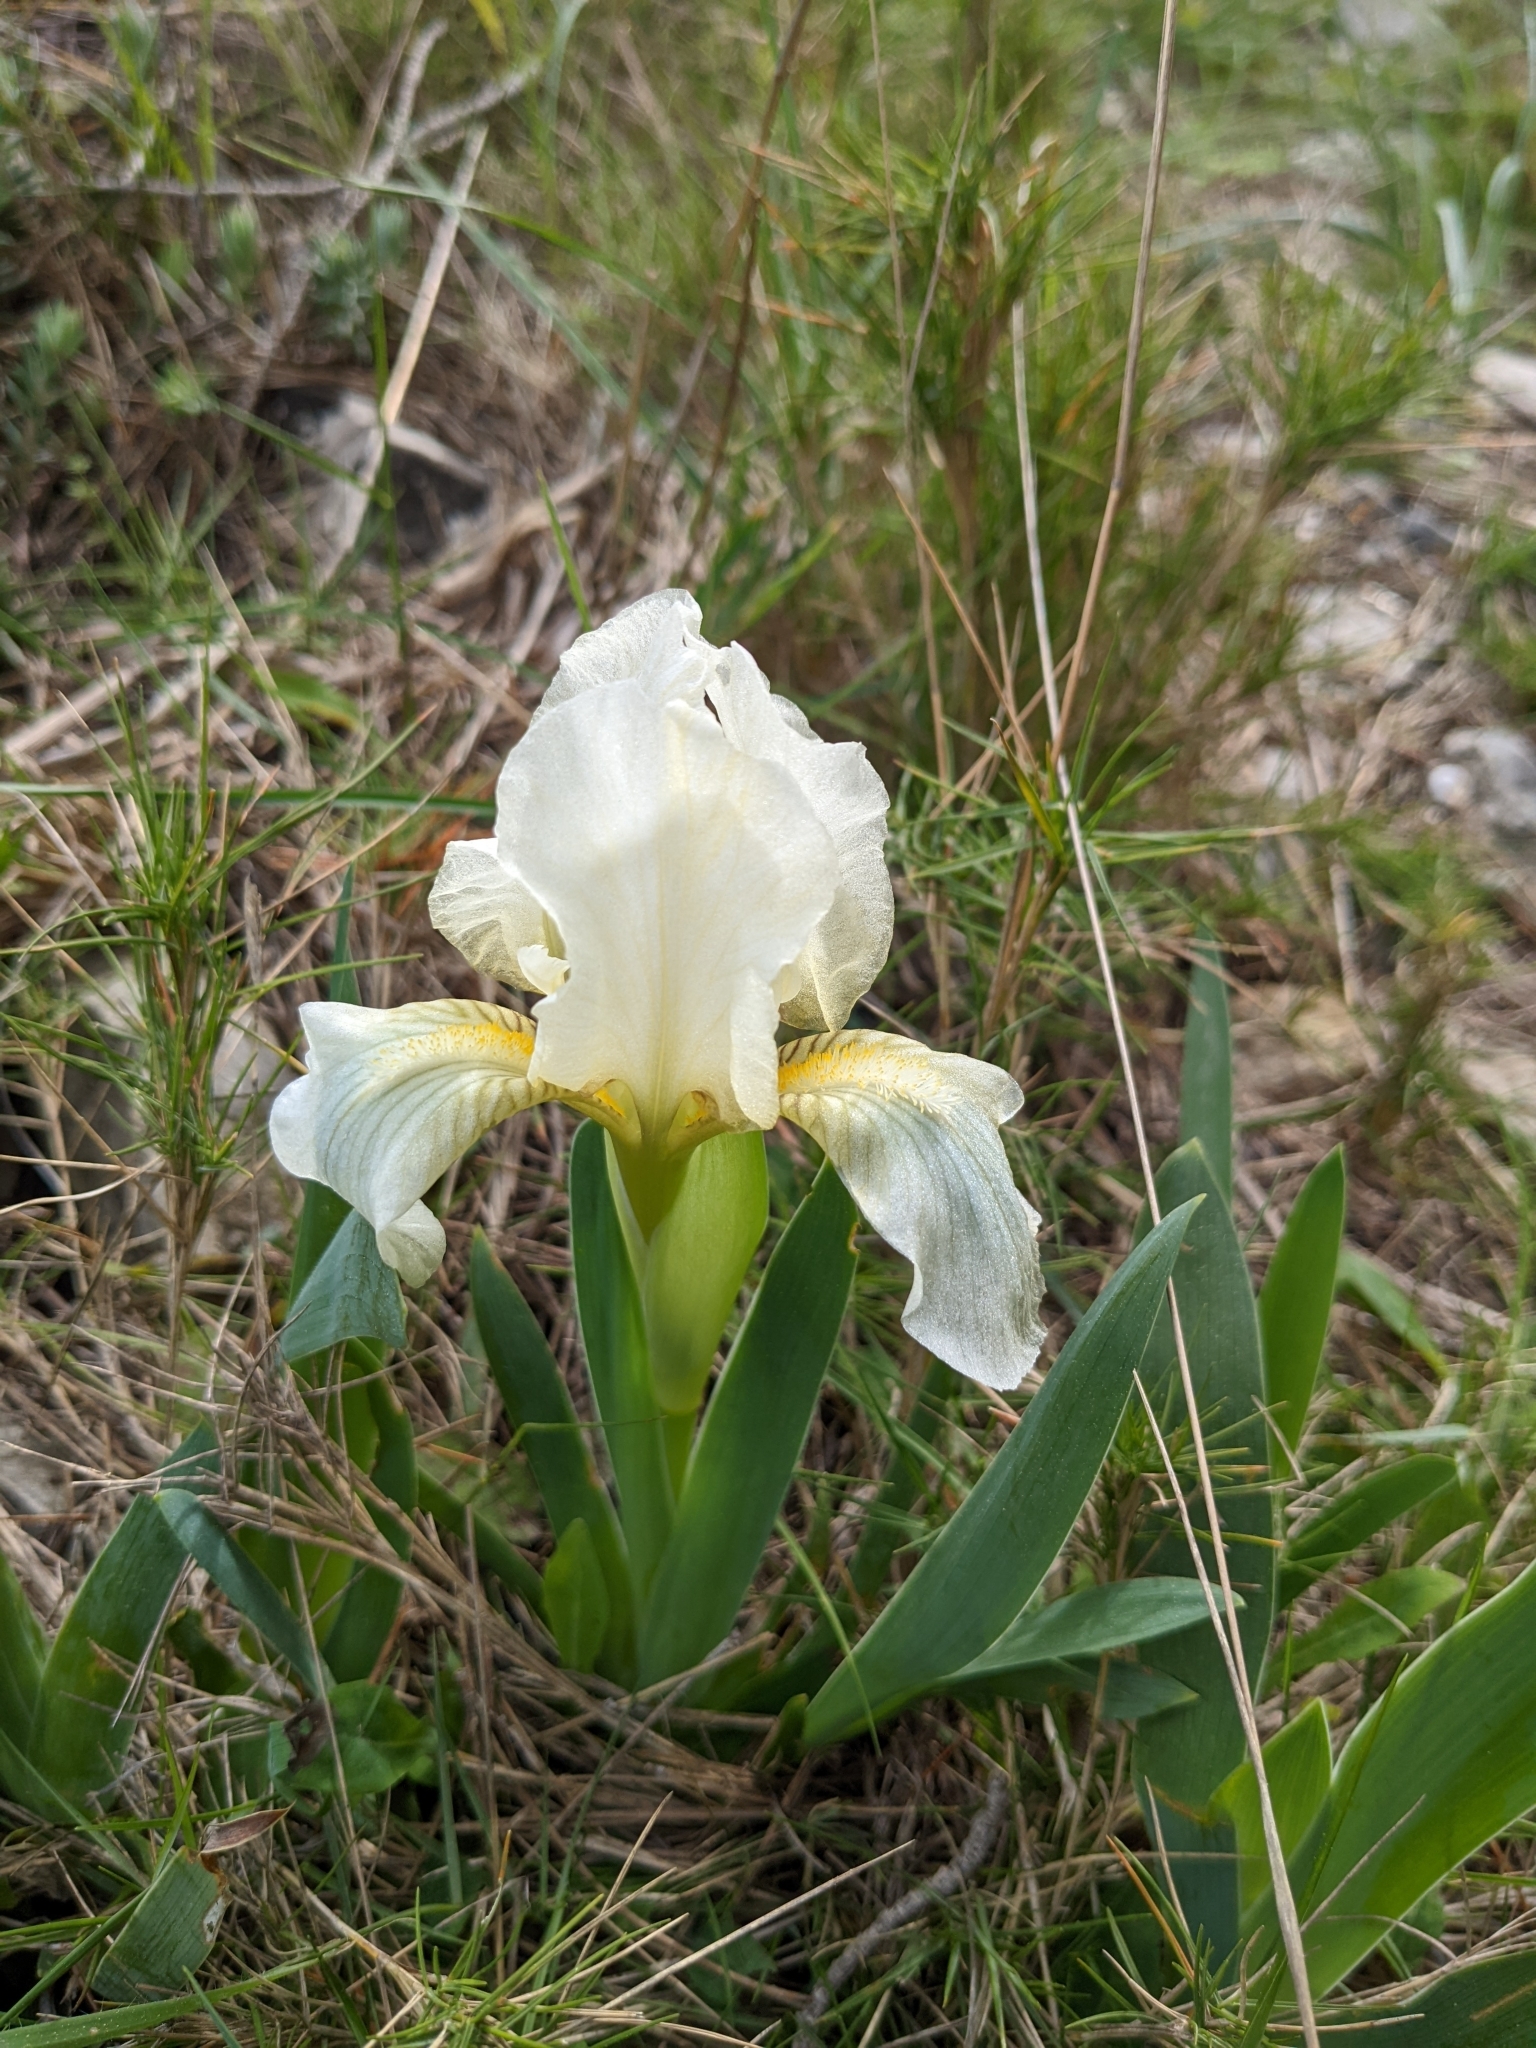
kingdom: Plantae
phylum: Tracheophyta
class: Liliopsida
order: Asparagales
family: Iridaceae
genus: Iris
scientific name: Iris lutescens
